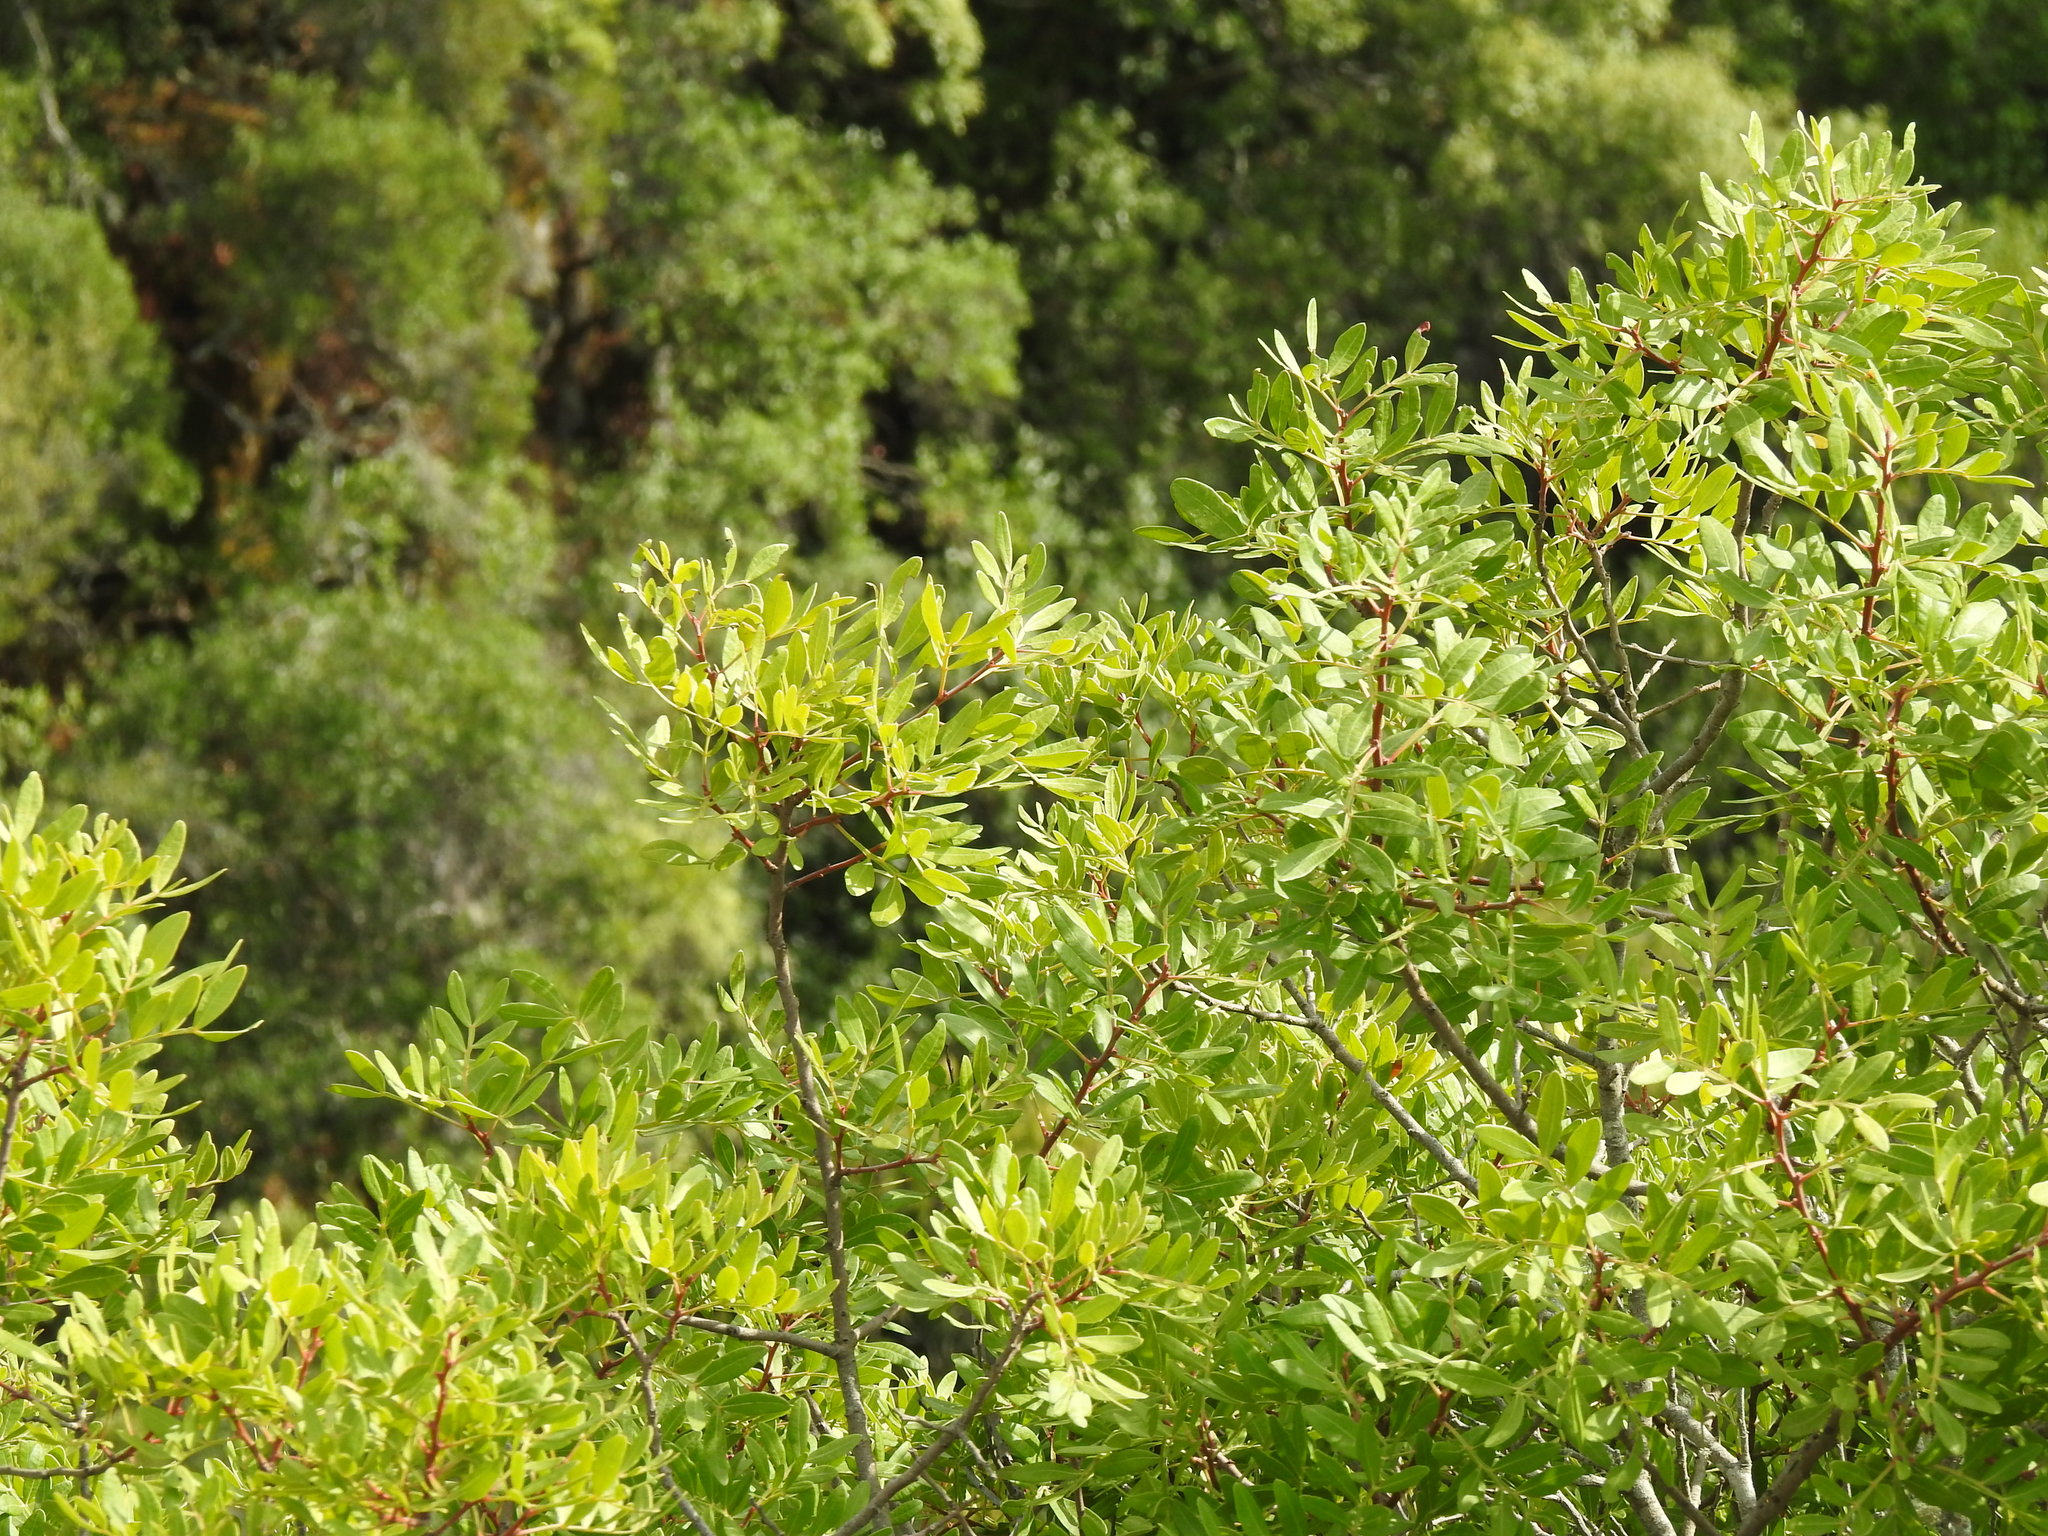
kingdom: Plantae
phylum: Tracheophyta
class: Magnoliopsida
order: Sapindales
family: Anacardiaceae
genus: Pistacia
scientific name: Pistacia lentiscus
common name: Lentisk
